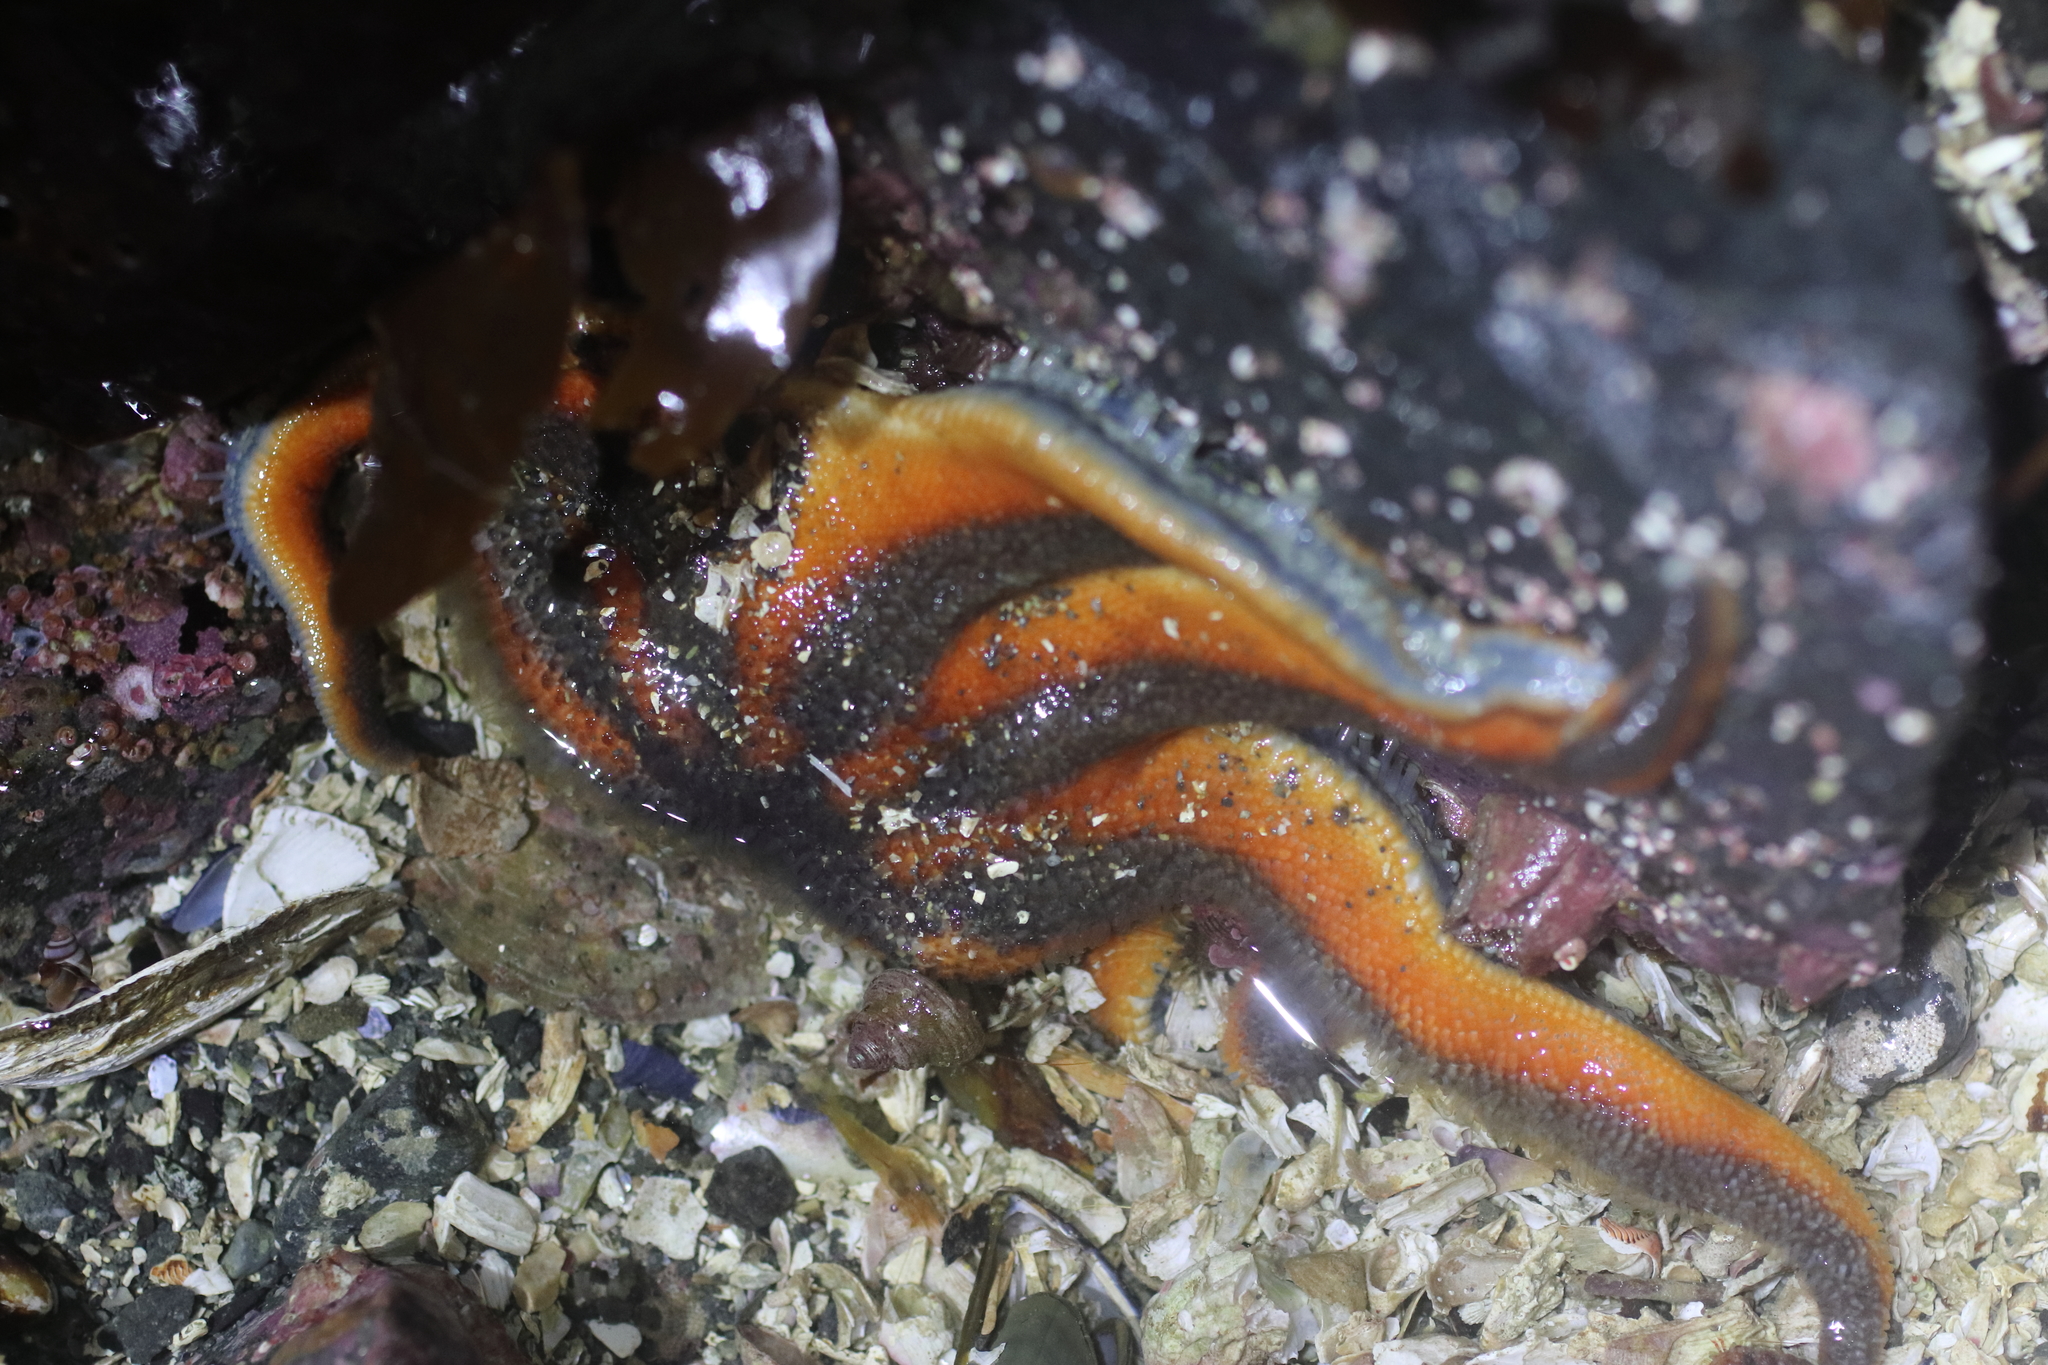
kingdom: Animalia
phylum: Echinodermata
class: Asteroidea
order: Valvatida
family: Solasteridae
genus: Solaster
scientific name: Solaster stimpsoni
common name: Orange sun star
